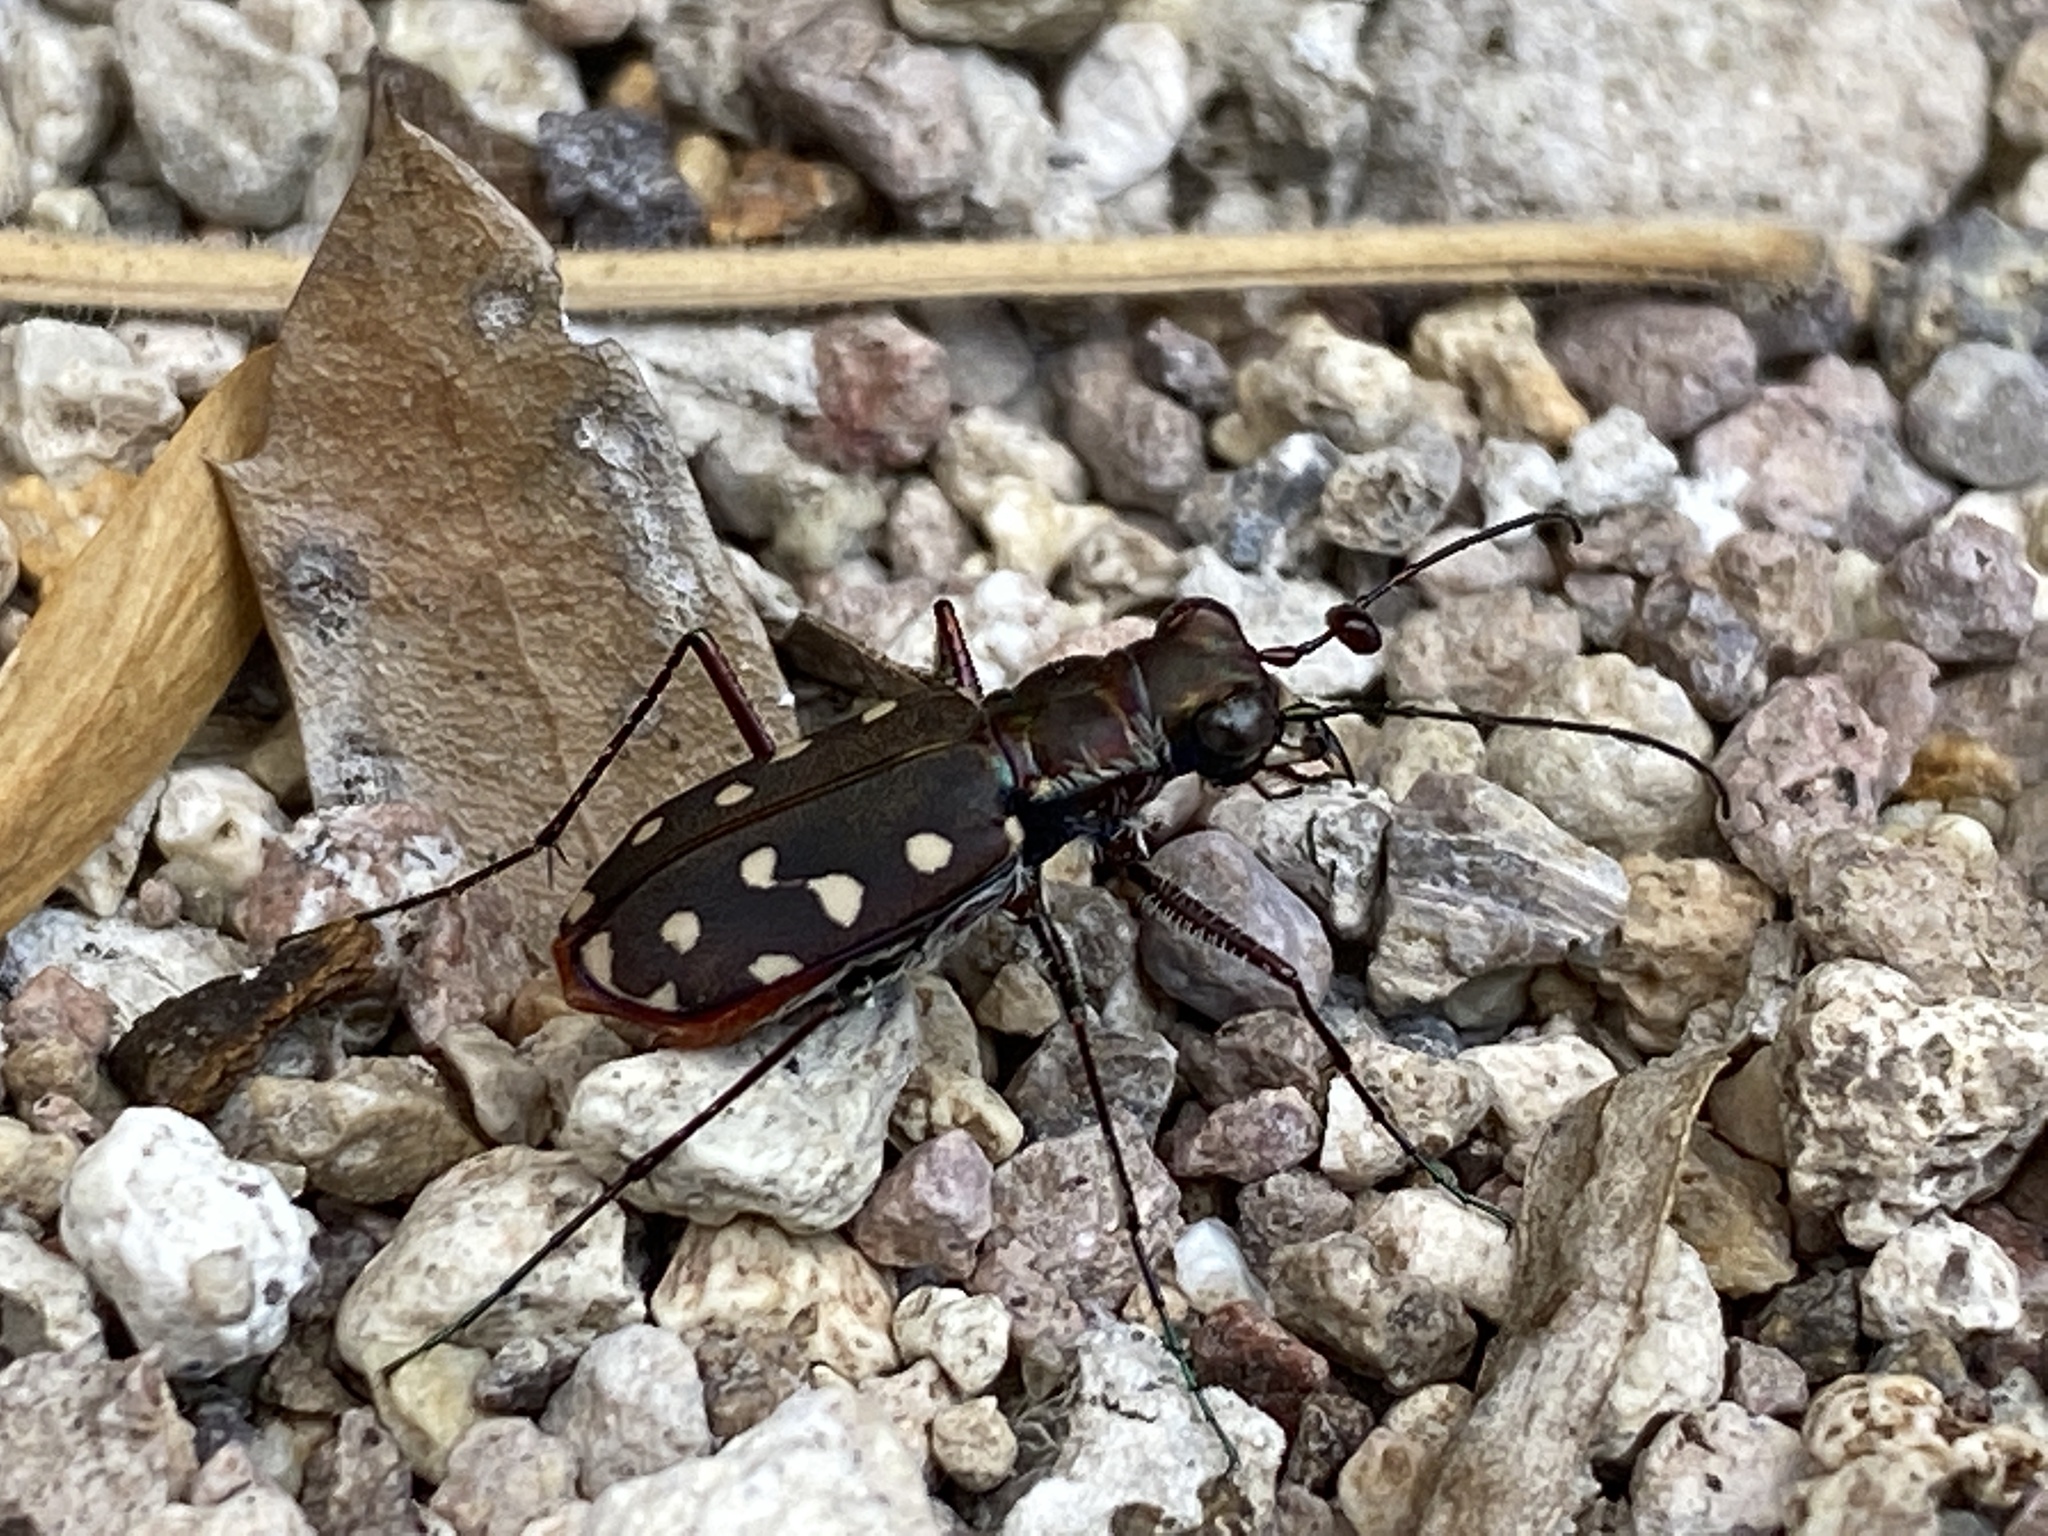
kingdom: Animalia
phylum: Arthropoda
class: Insecta
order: Coleoptera
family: Carabidae
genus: Cicindela
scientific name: Cicindela sedecimpunctata
